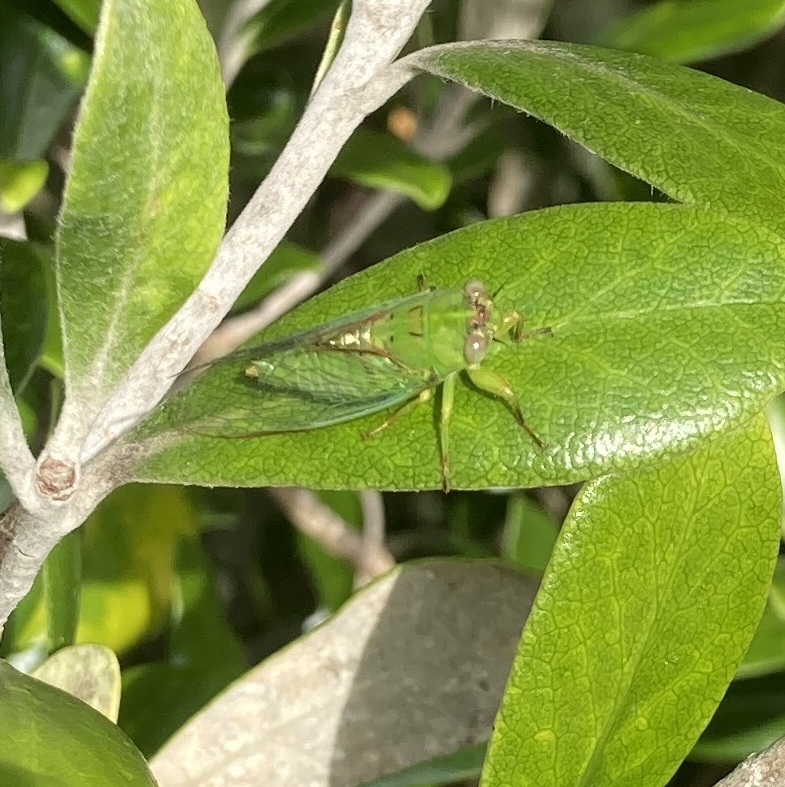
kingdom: Animalia
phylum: Arthropoda
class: Insecta
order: Hemiptera
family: Cicadidae
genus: Kikihia
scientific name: Kikihia ochrina
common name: April green cicada
